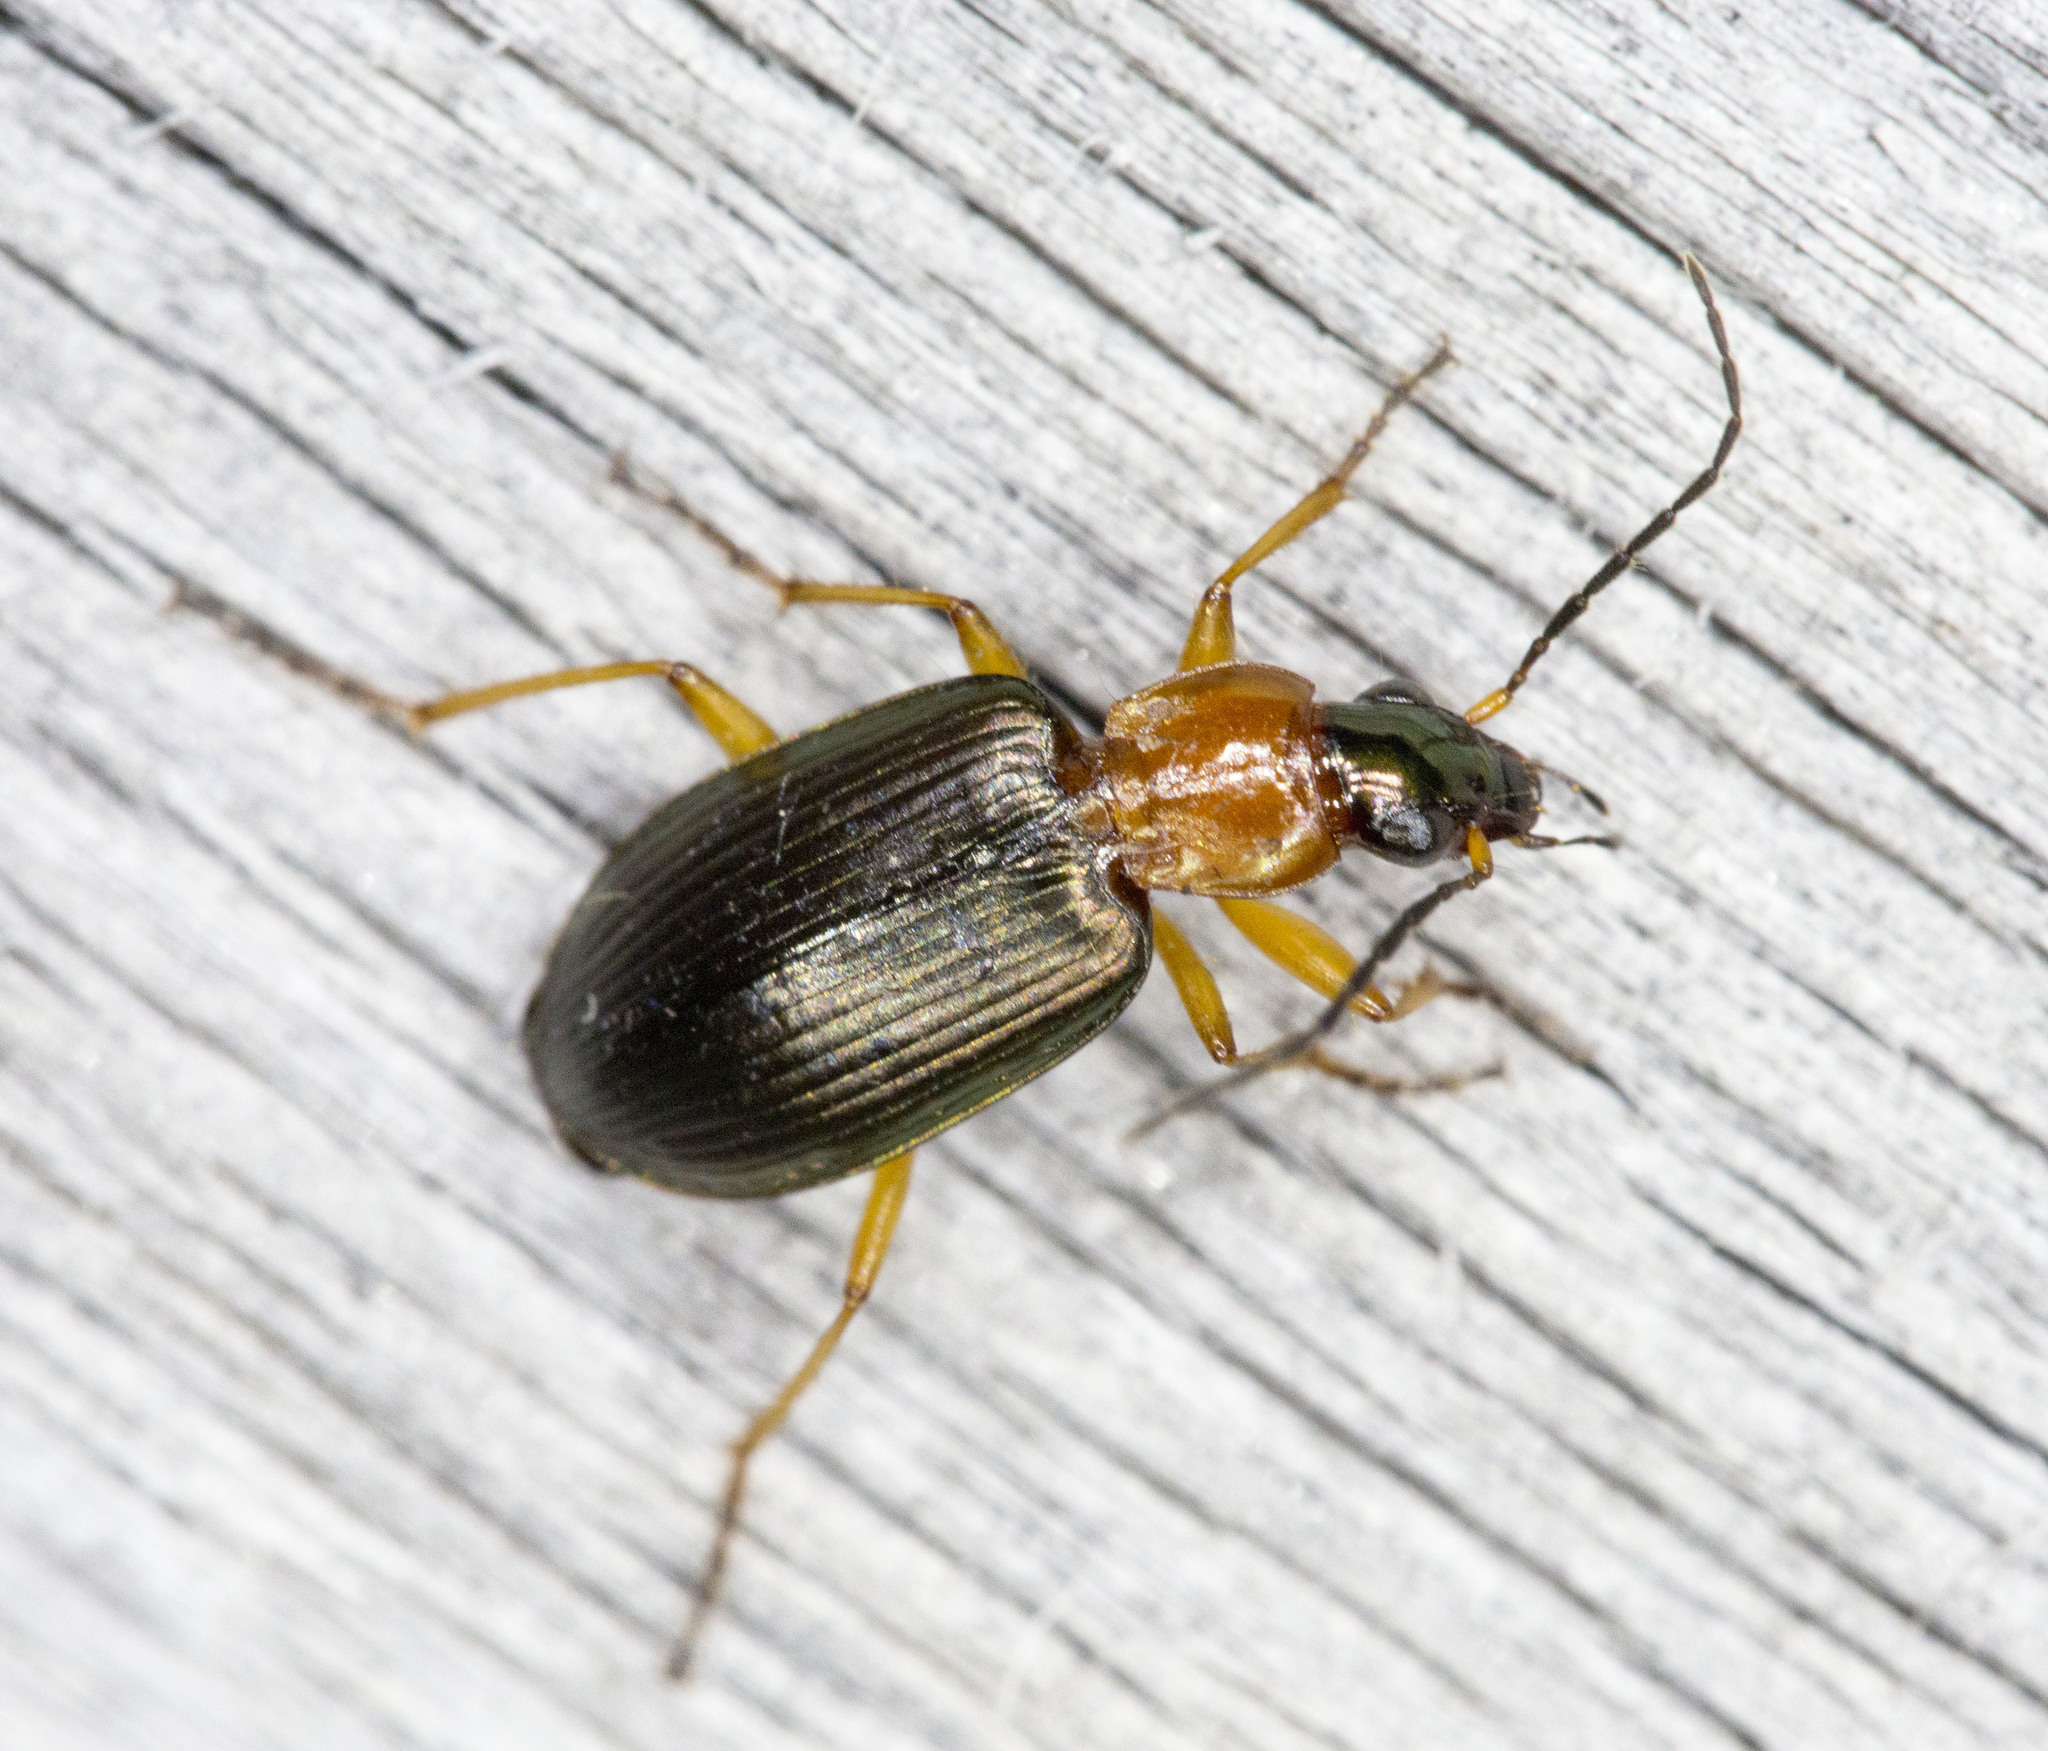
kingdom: Animalia
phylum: Arthropoda
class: Insecta
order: Coleoptera
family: Carabidae
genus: Agonum
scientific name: Agonum decorum
